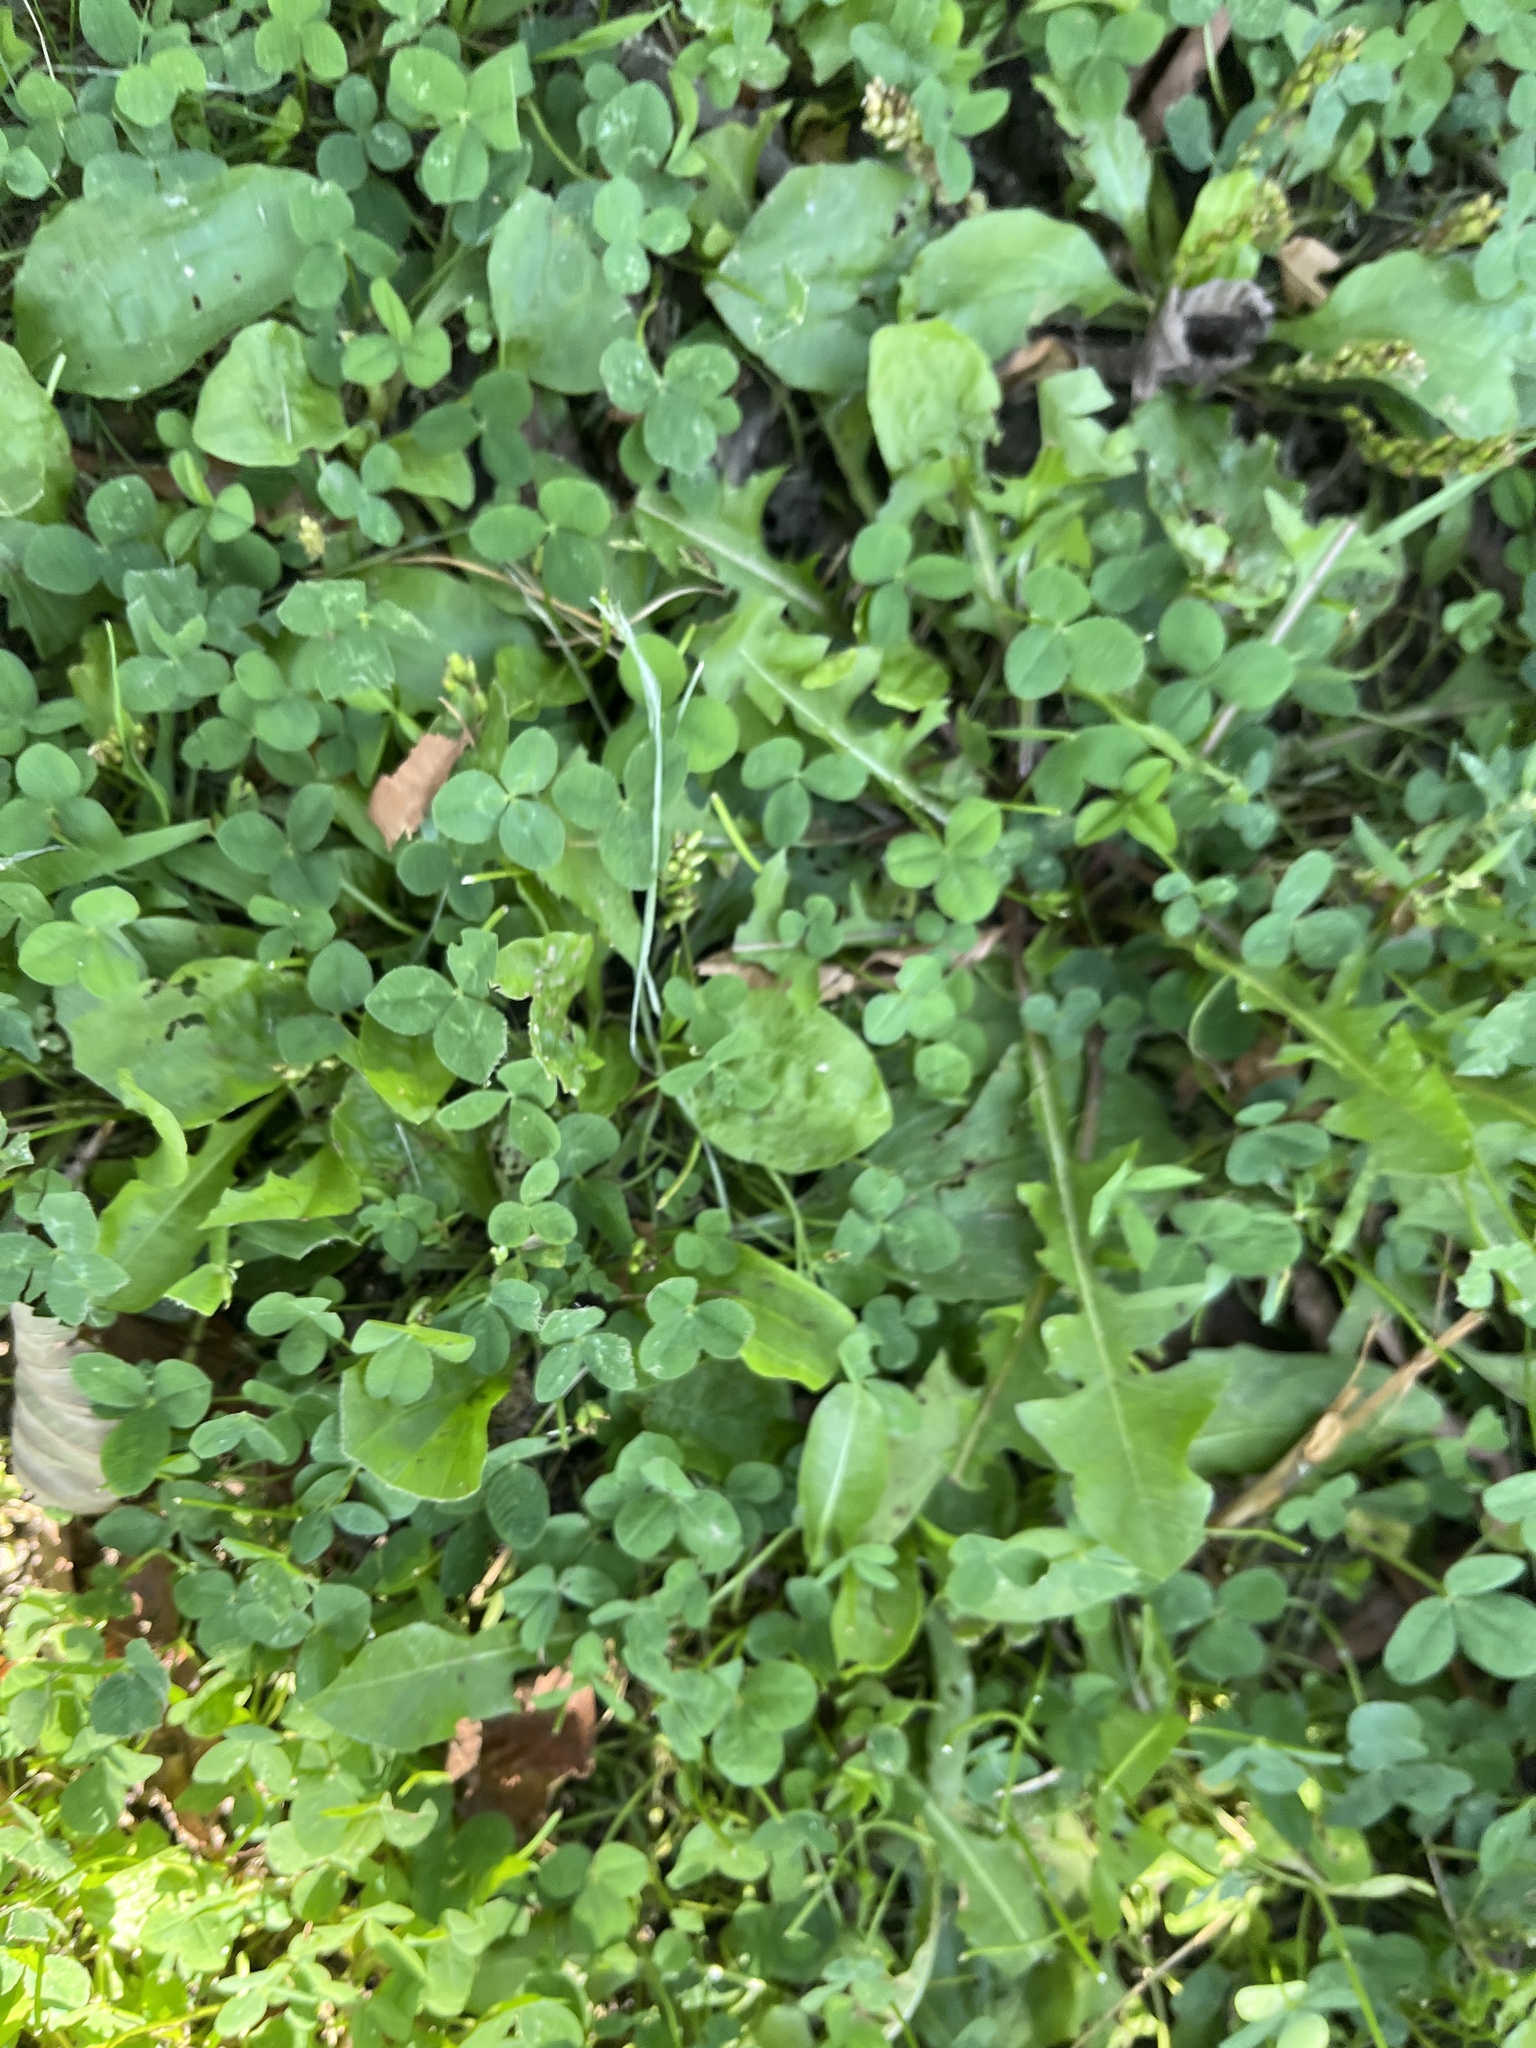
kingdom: Plantae
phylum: Tracheophyta
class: Magnoliopsida
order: Fabales
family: Fabaceae
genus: Trifolium
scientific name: Trifolium repens
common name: White clover
